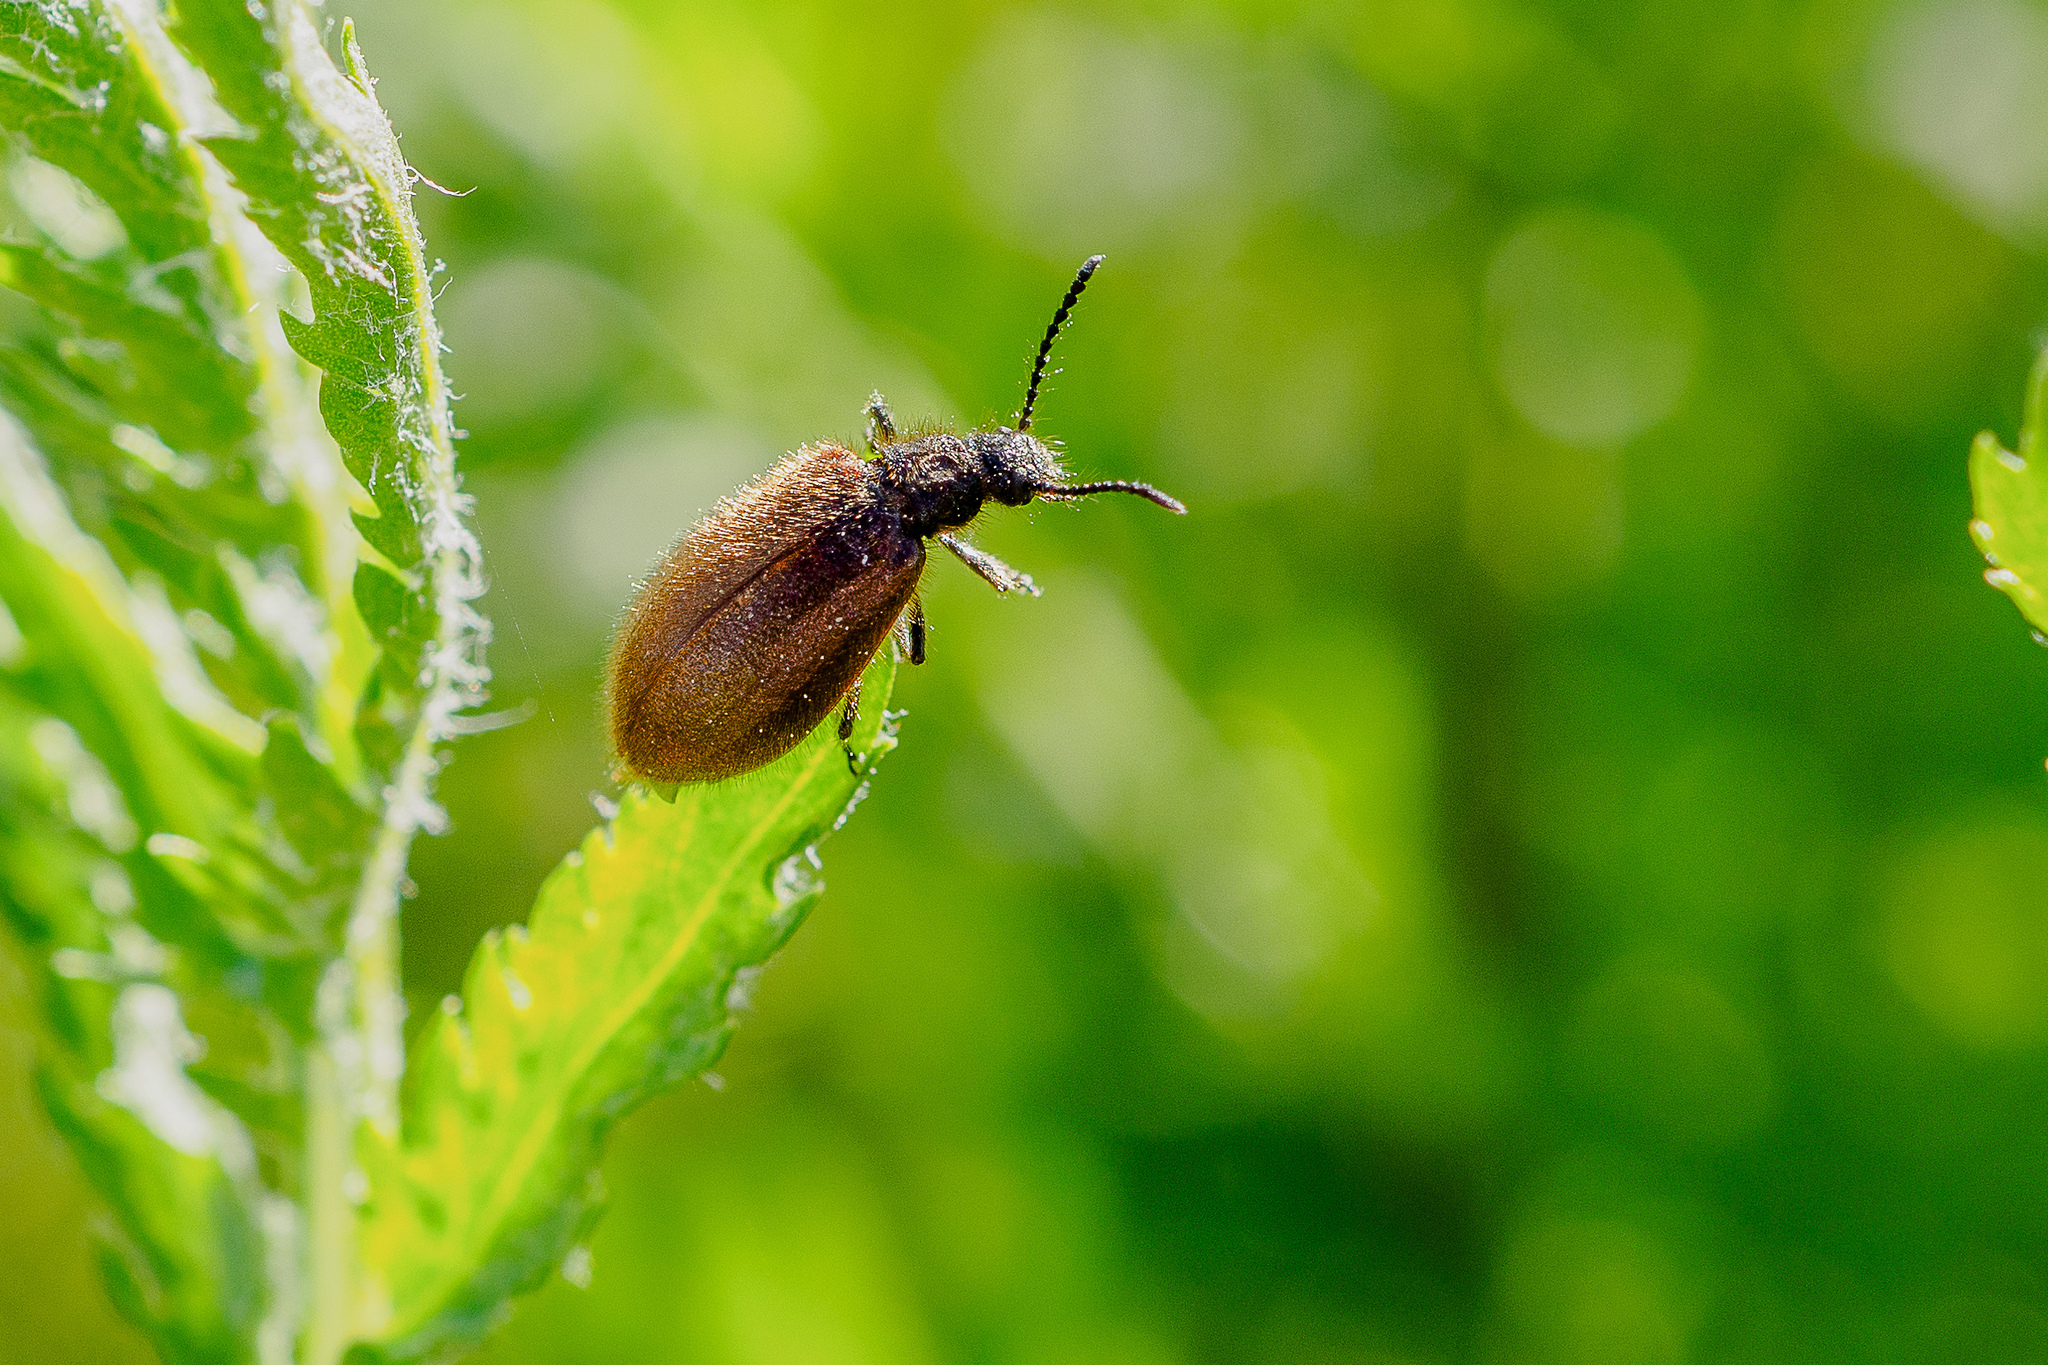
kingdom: Animalia
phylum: Arthropoda
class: Insecta
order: Coleoptera
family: Tenebrionidae
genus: Lagria
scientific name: Lagria hirta
